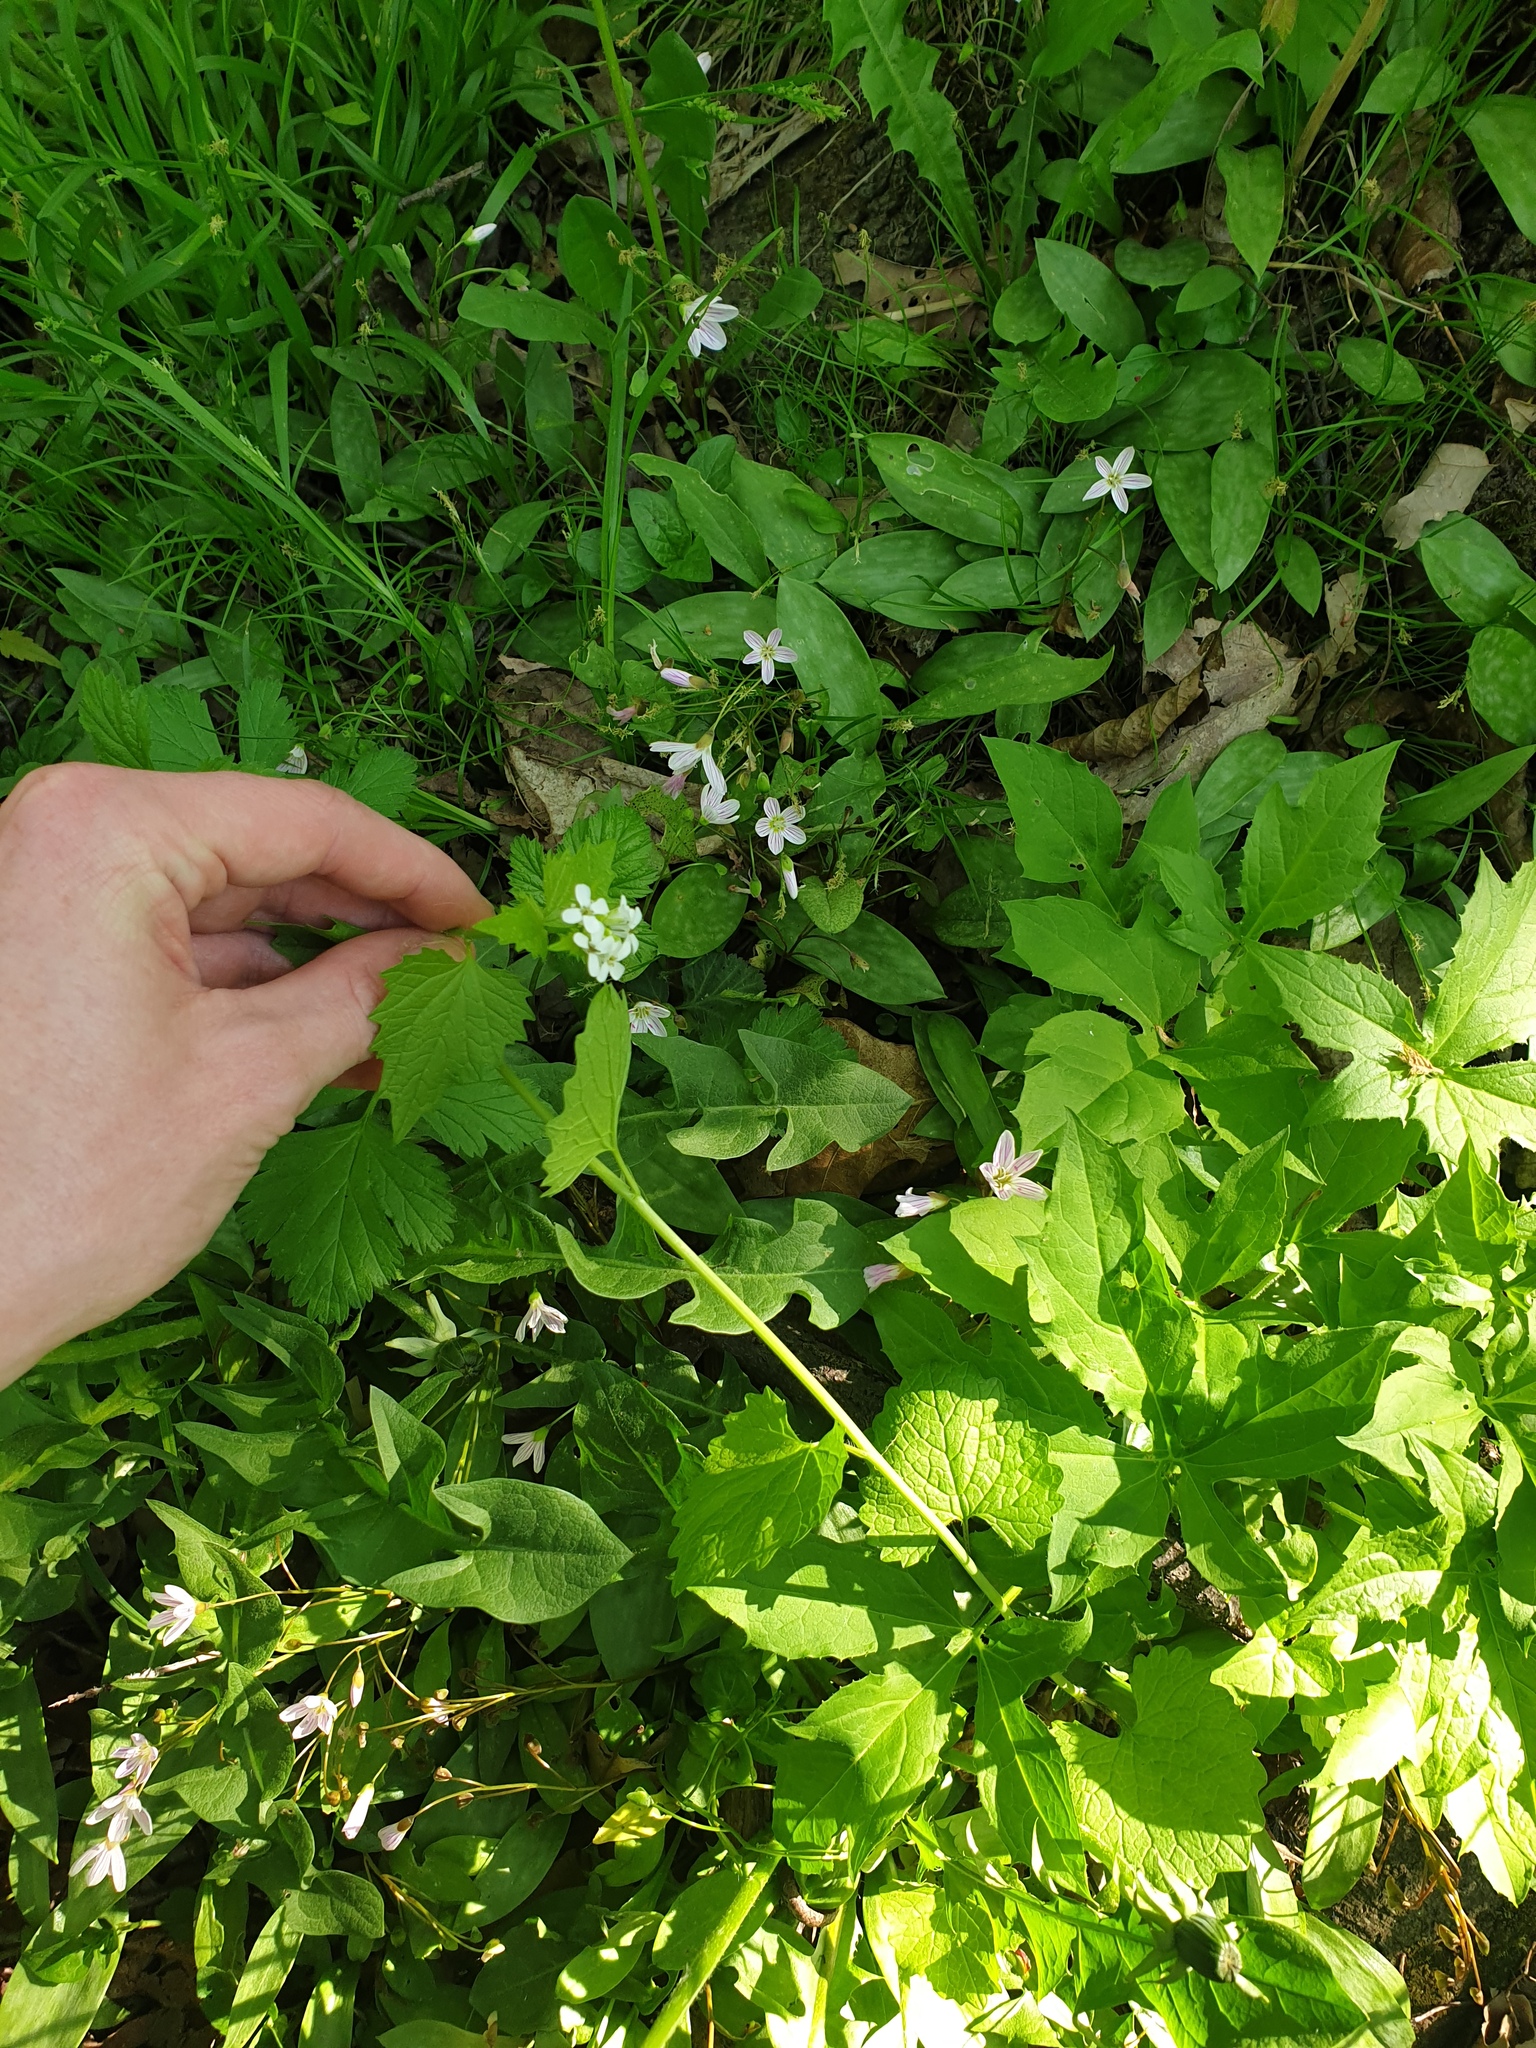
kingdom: Plantae
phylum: Tracheophyta
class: Magnoliopsida
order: Brassicales
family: Brassicaceae
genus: Alliaria
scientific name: Alliaria petiolata
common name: Garlic mustard
